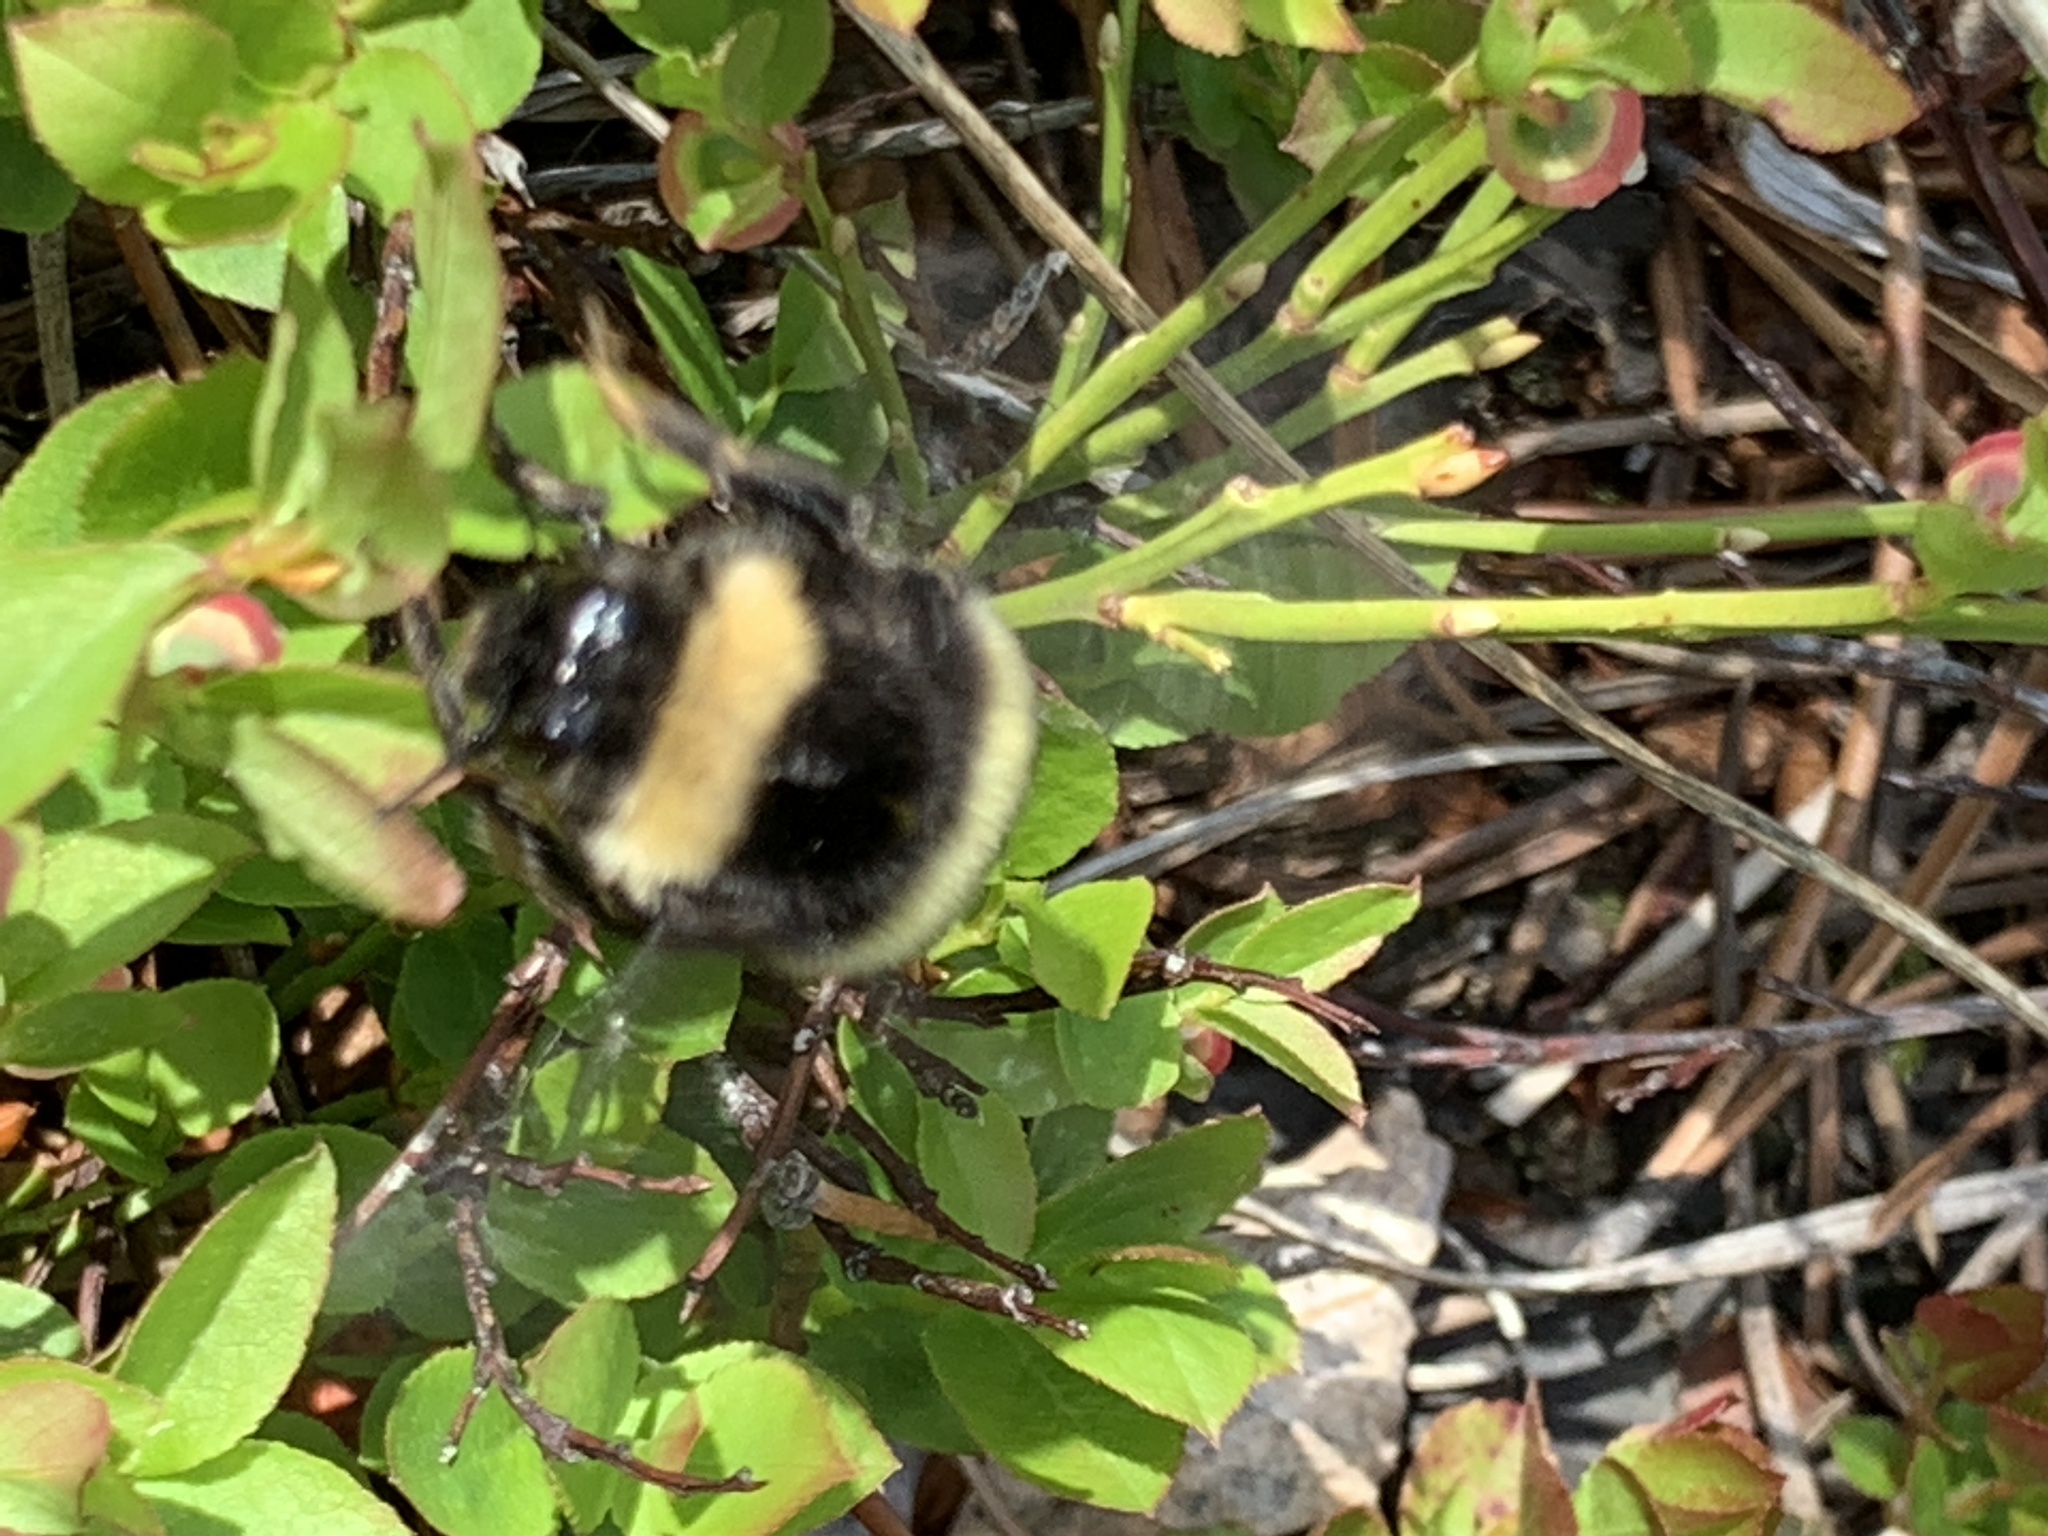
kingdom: Animalia
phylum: Arthropoda
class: Insecta
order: Hymenoptera
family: Apidae
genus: Bombus
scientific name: Bombus cryptarum
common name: Cryptic bumblebee
